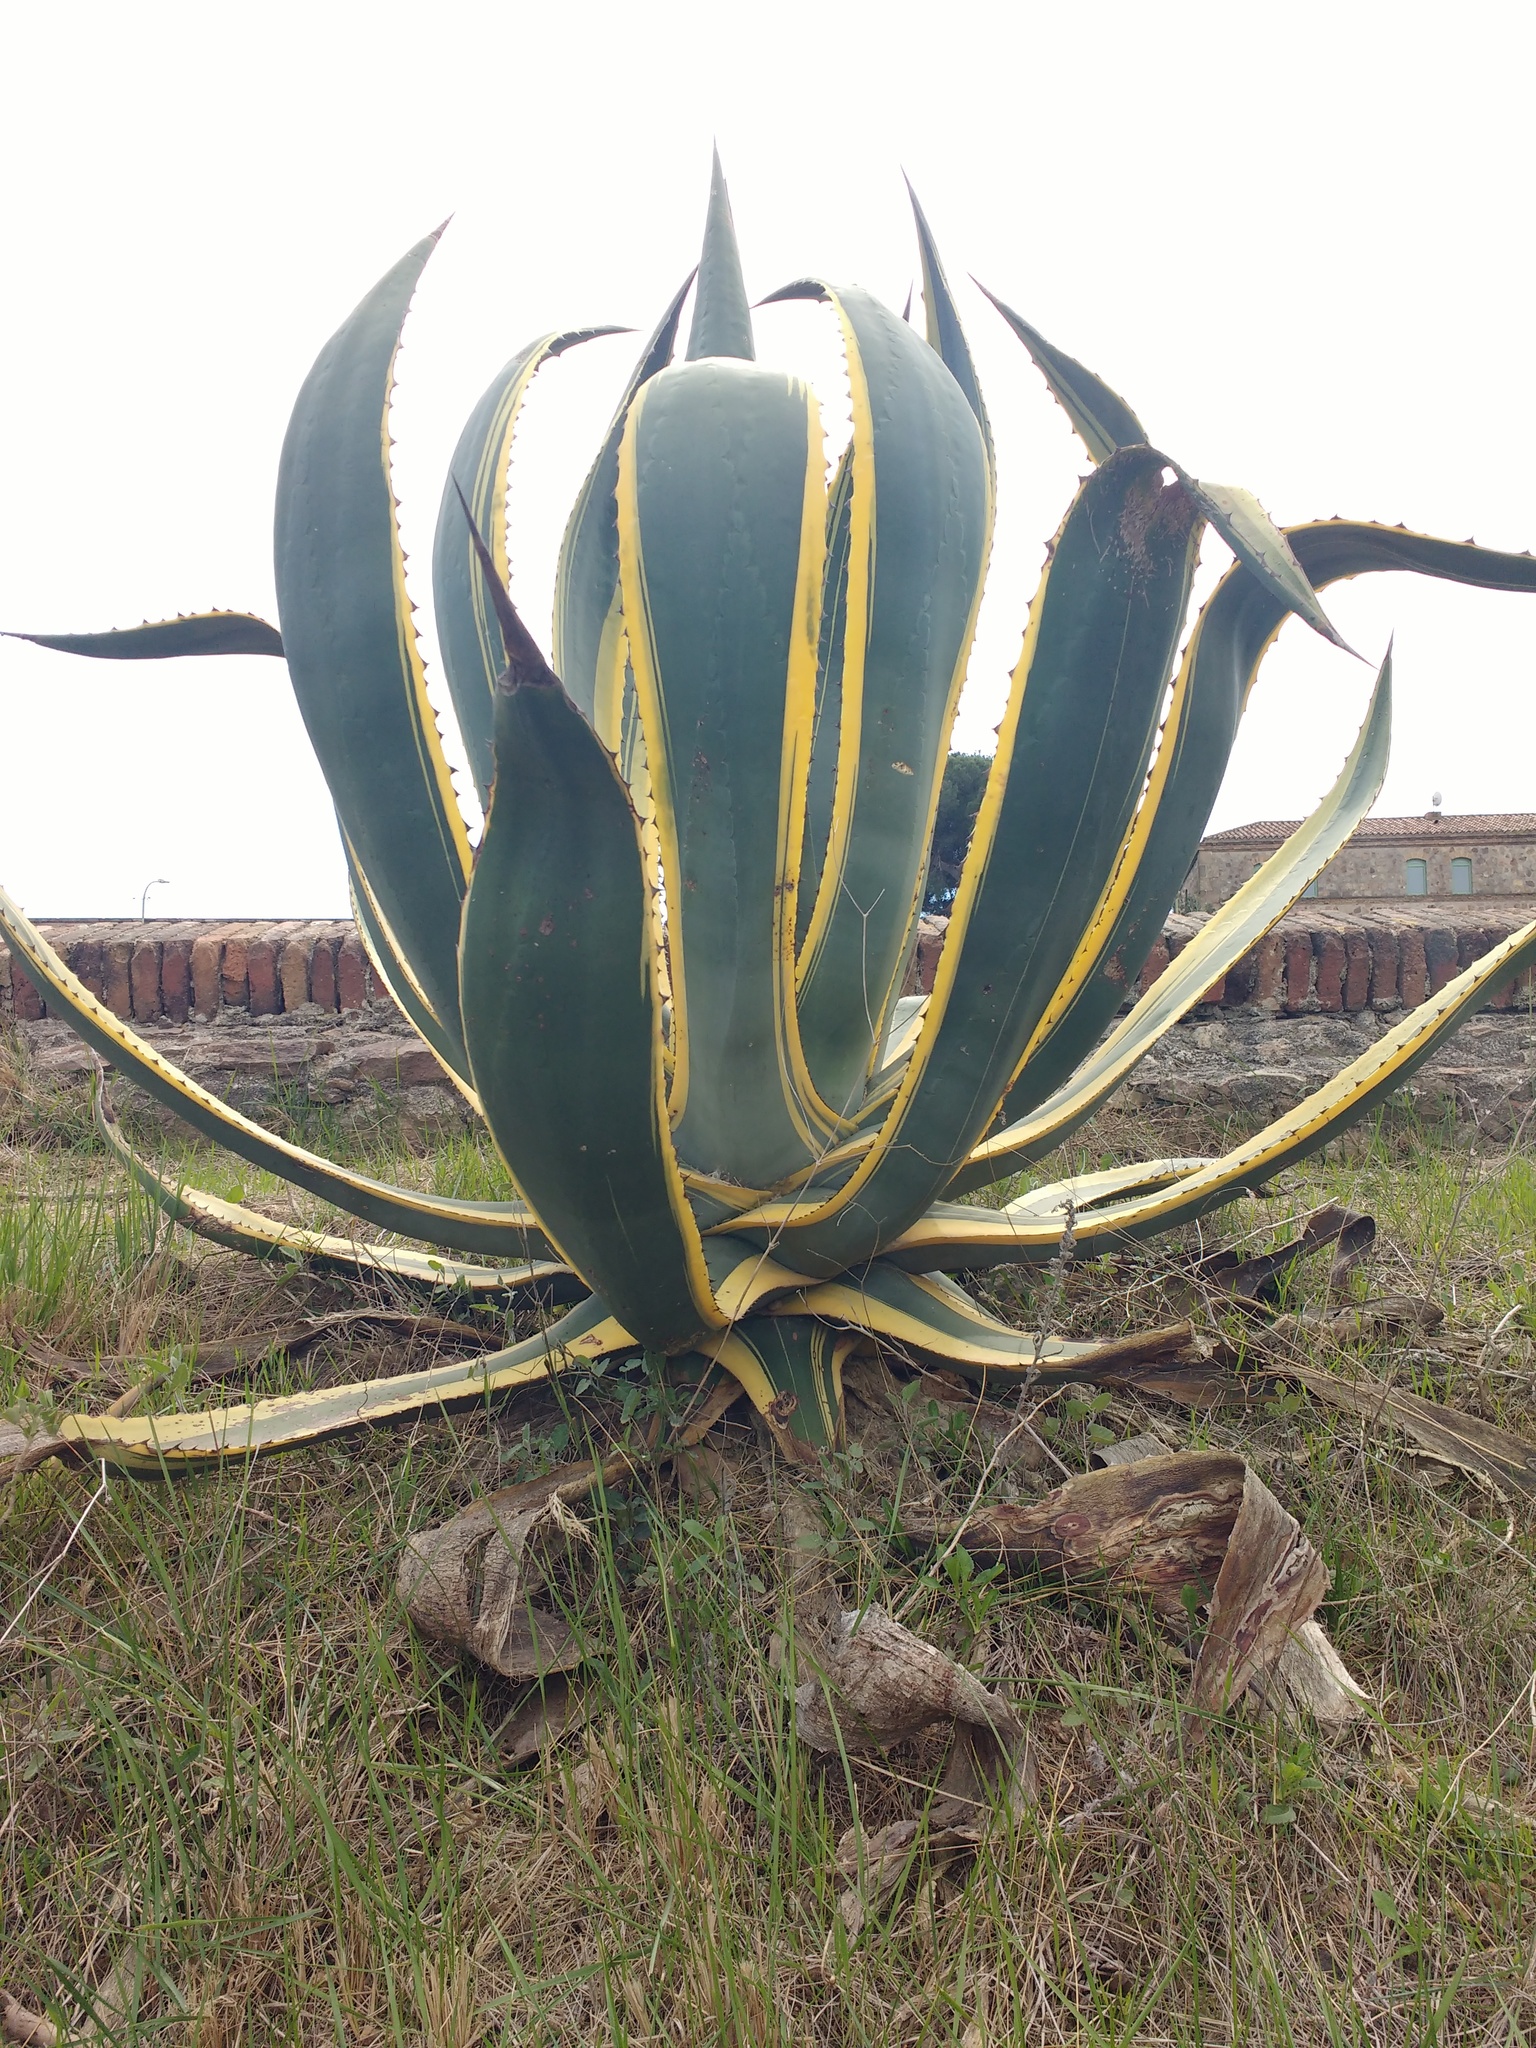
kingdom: Plantae
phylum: Tracheophyta
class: Liliopsida
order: Asparagales
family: Asparagaceae
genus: Agave
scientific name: Agave americana
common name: Centuryplant
